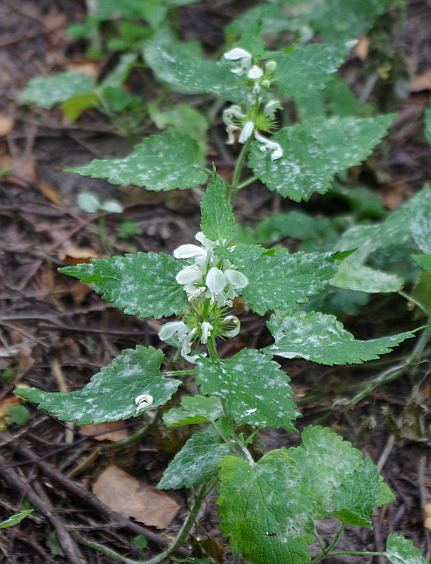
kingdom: Plantae
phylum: Tracheophyta
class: Magnoliopsida
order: Lamiales
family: Lamiaceae
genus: Lamium
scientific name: Lamium album
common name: White dead-nettle
